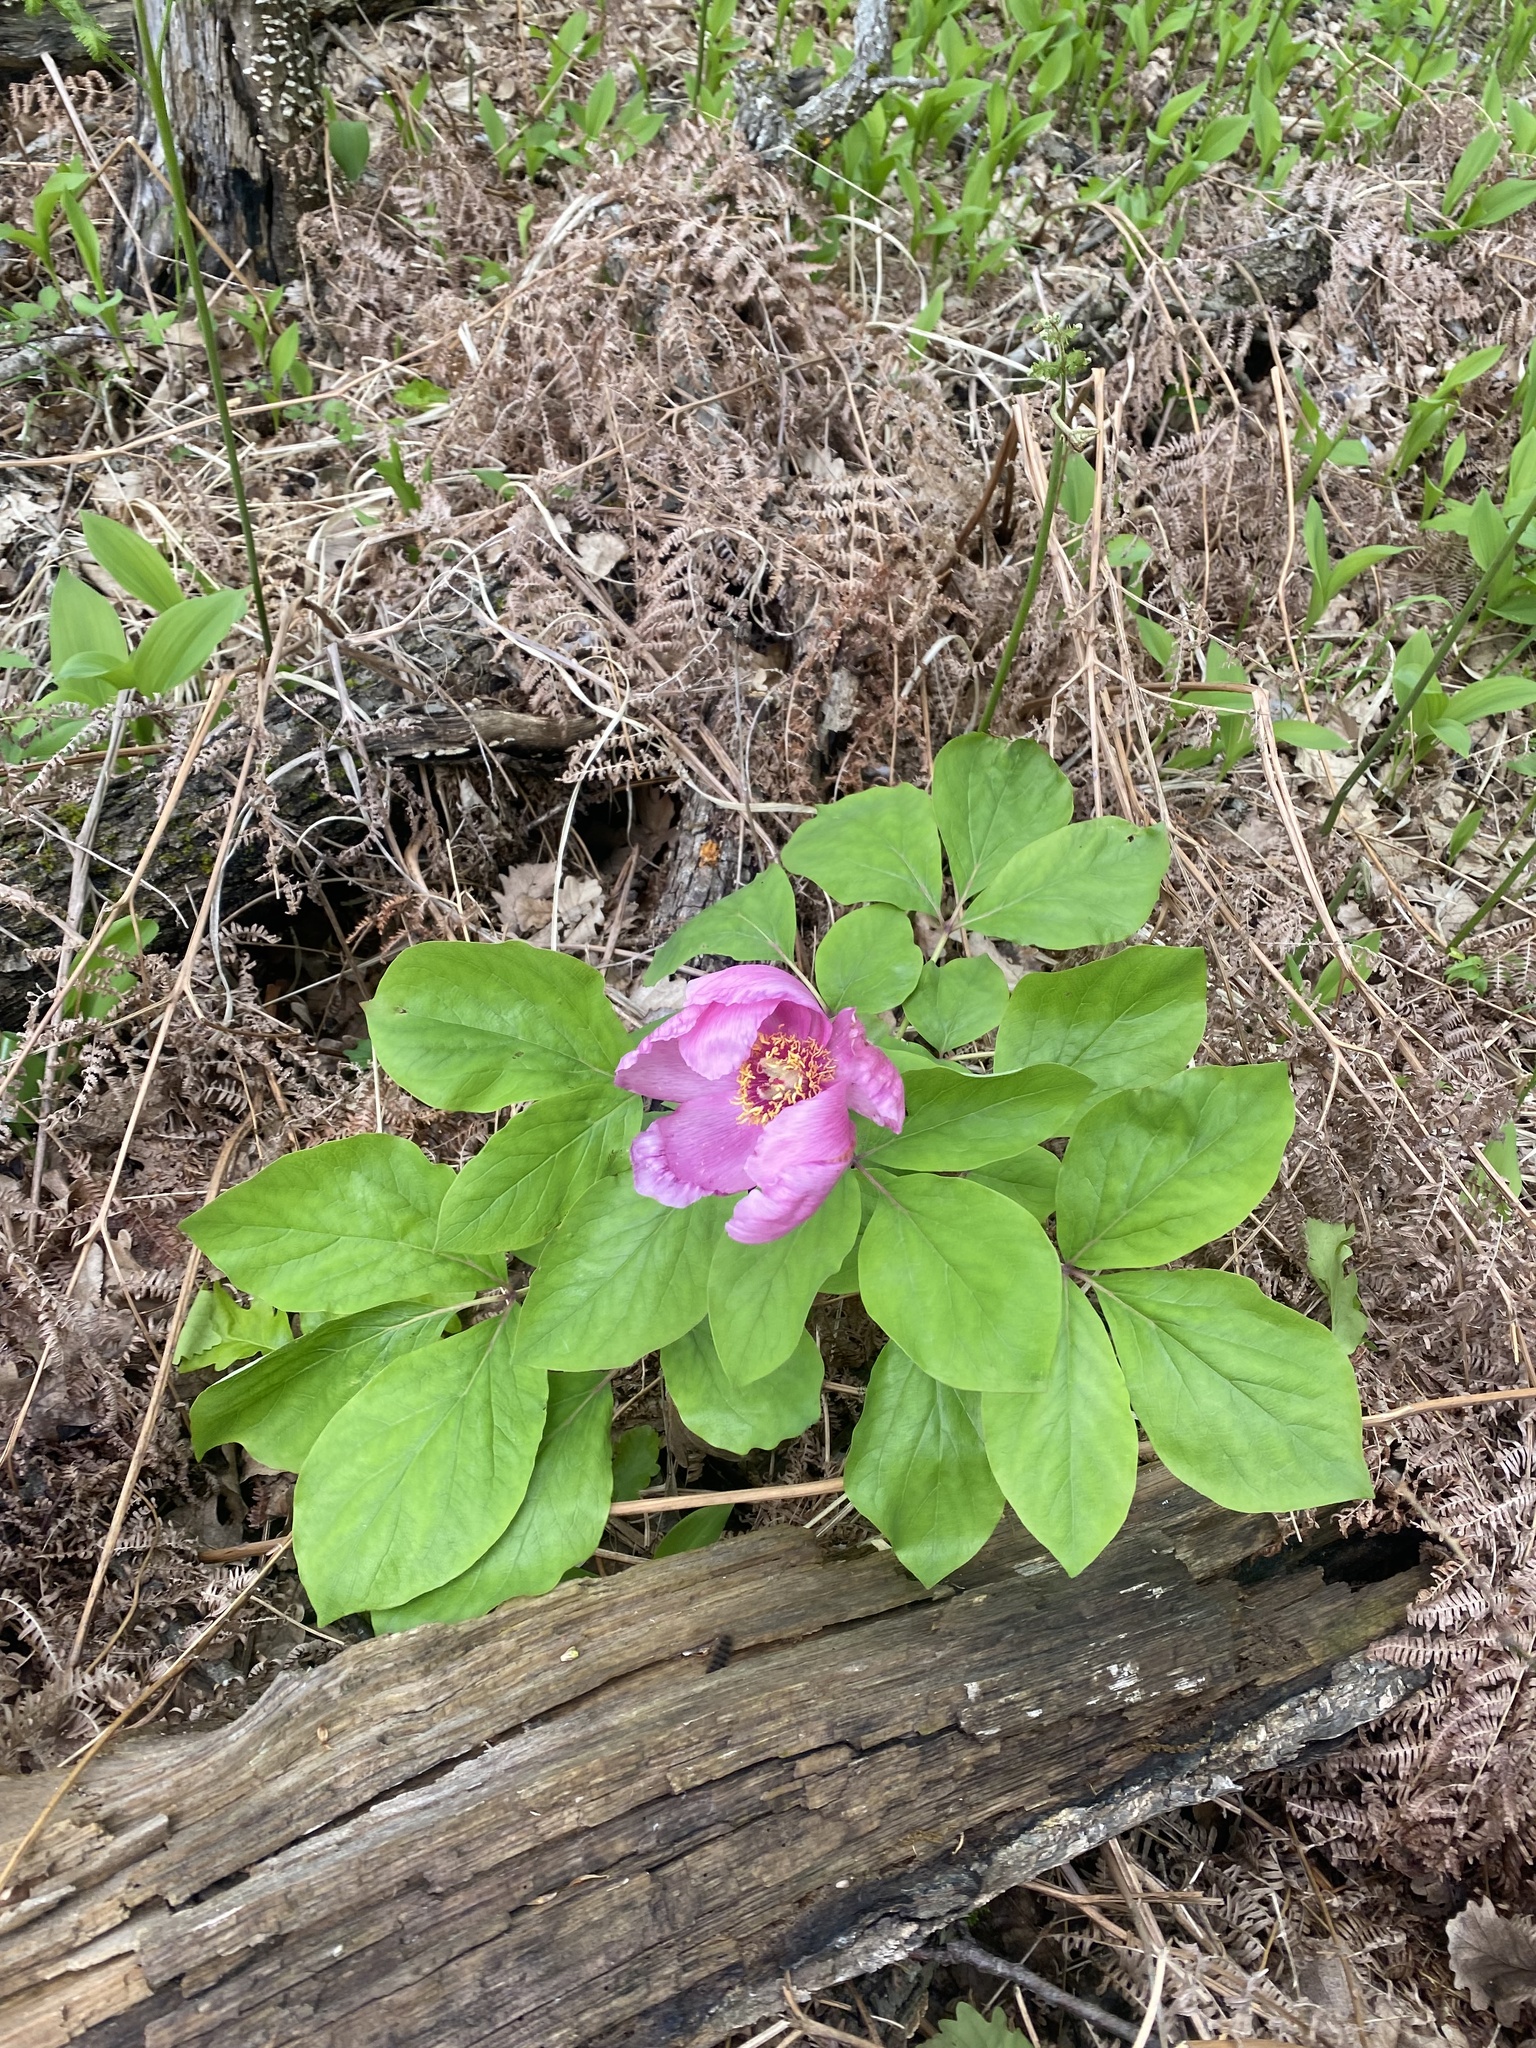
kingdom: Plantae
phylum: Tracheophyta
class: Magnoliopsida
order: Saxifragales
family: Paeoniaceae
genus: Paeonia
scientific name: Paeonia caucasica
